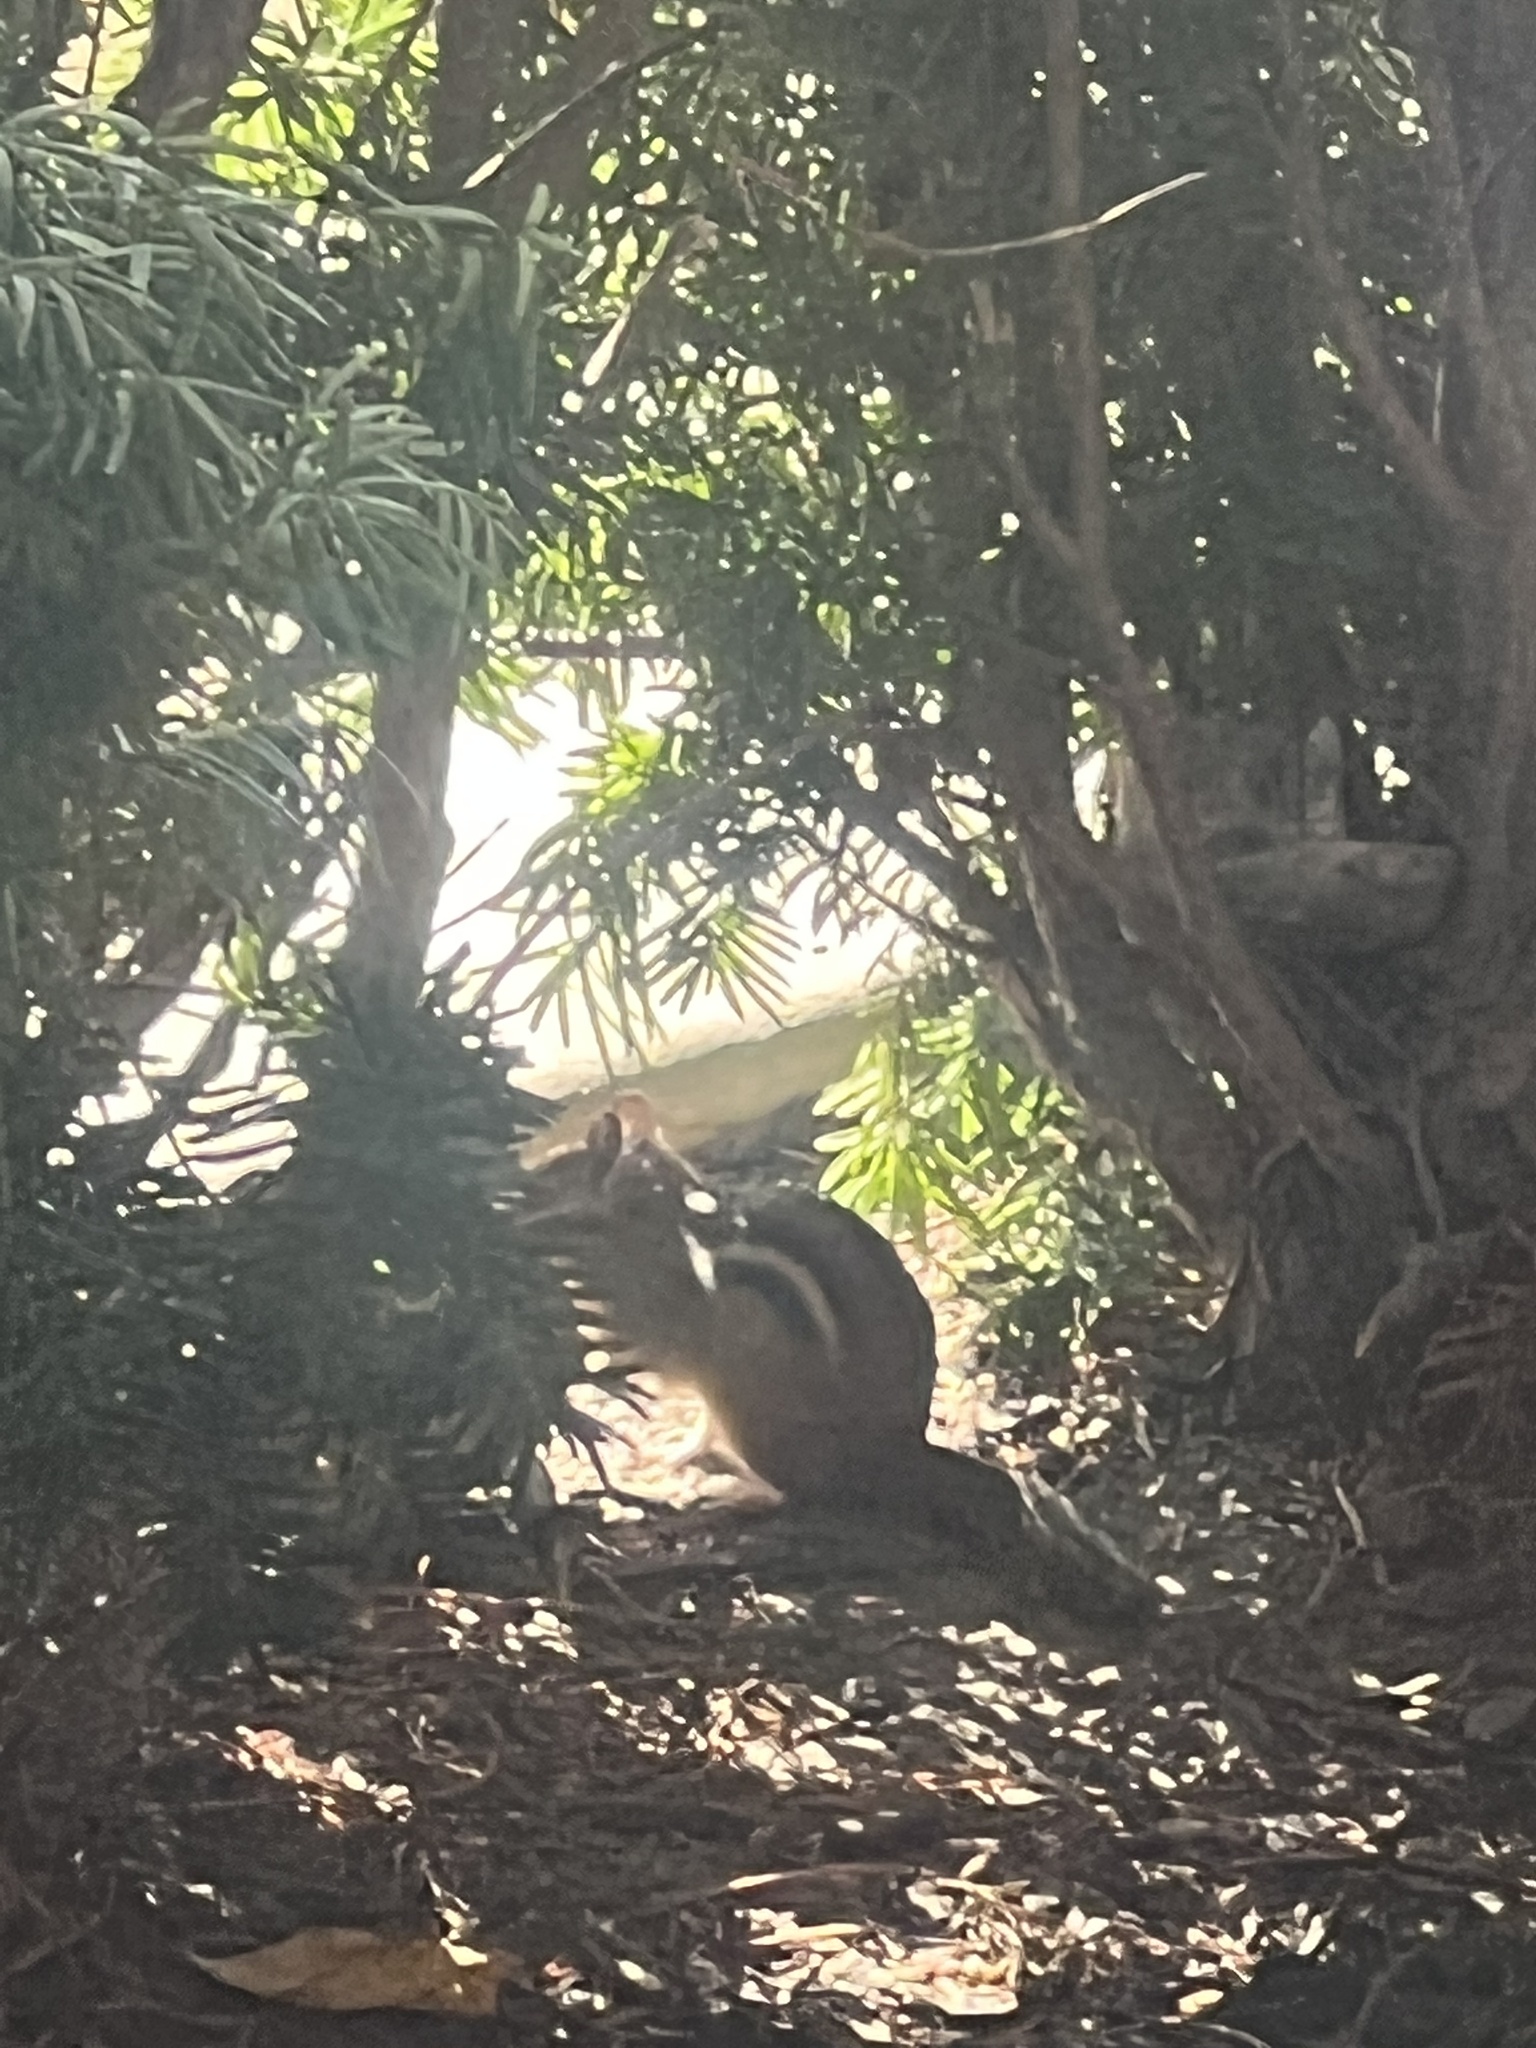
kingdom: Animalia
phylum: Chordata
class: Mammalia
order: Rodentia
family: Sciuridae
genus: Tamias
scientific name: Tamias striatus
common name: Eastern chipmunk
